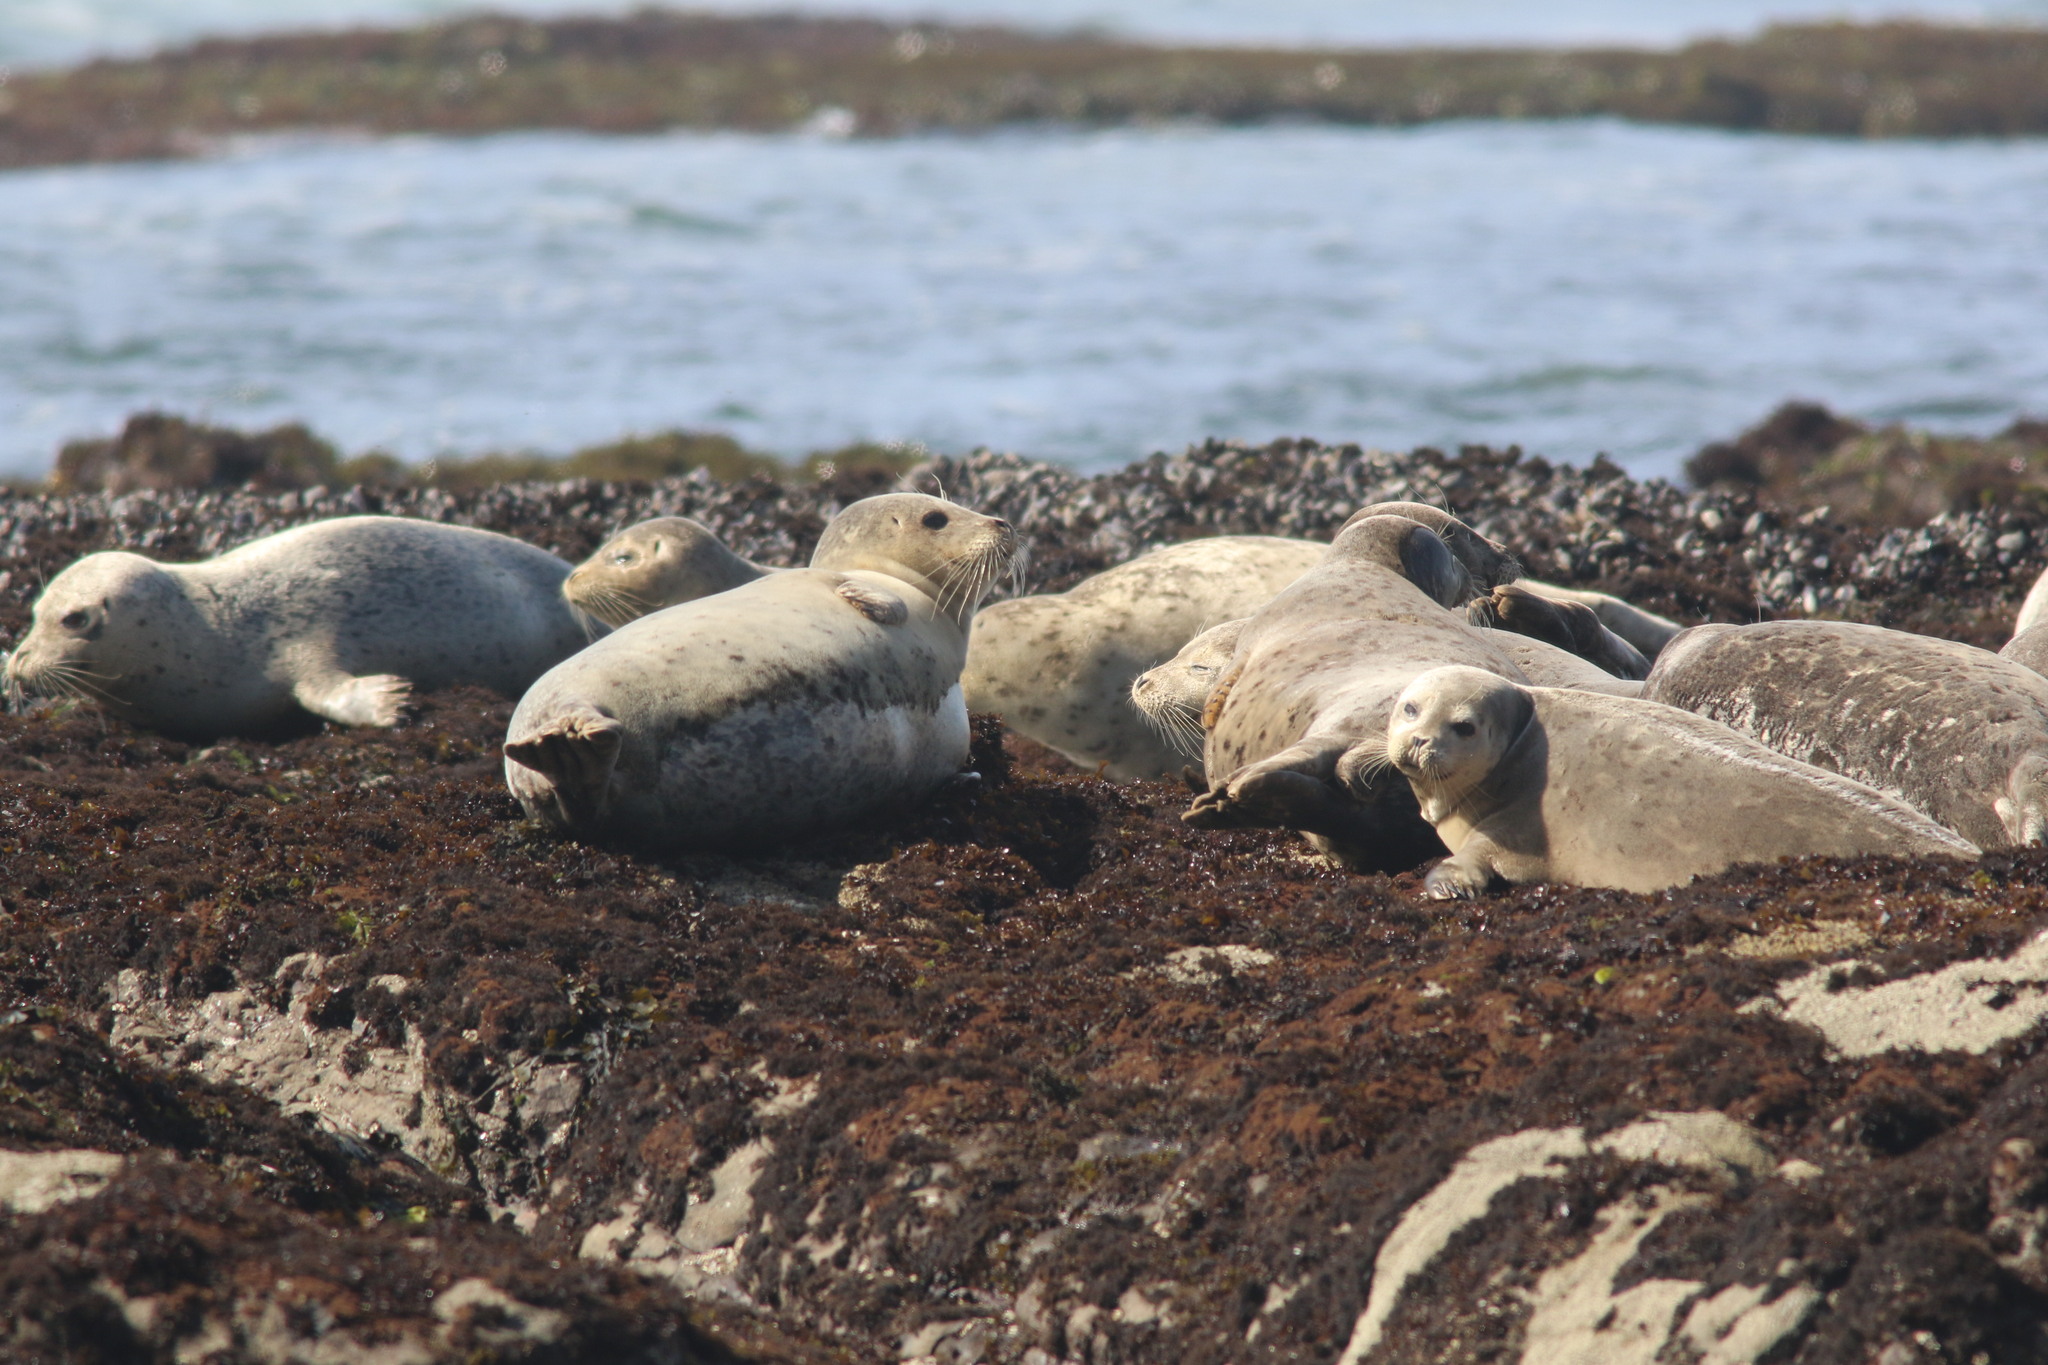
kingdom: Animalia
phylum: Chordata
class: Mammalia
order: Carnivora
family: Phocidae
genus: Phoca
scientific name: Phoca vitulina
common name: Harbor seal
